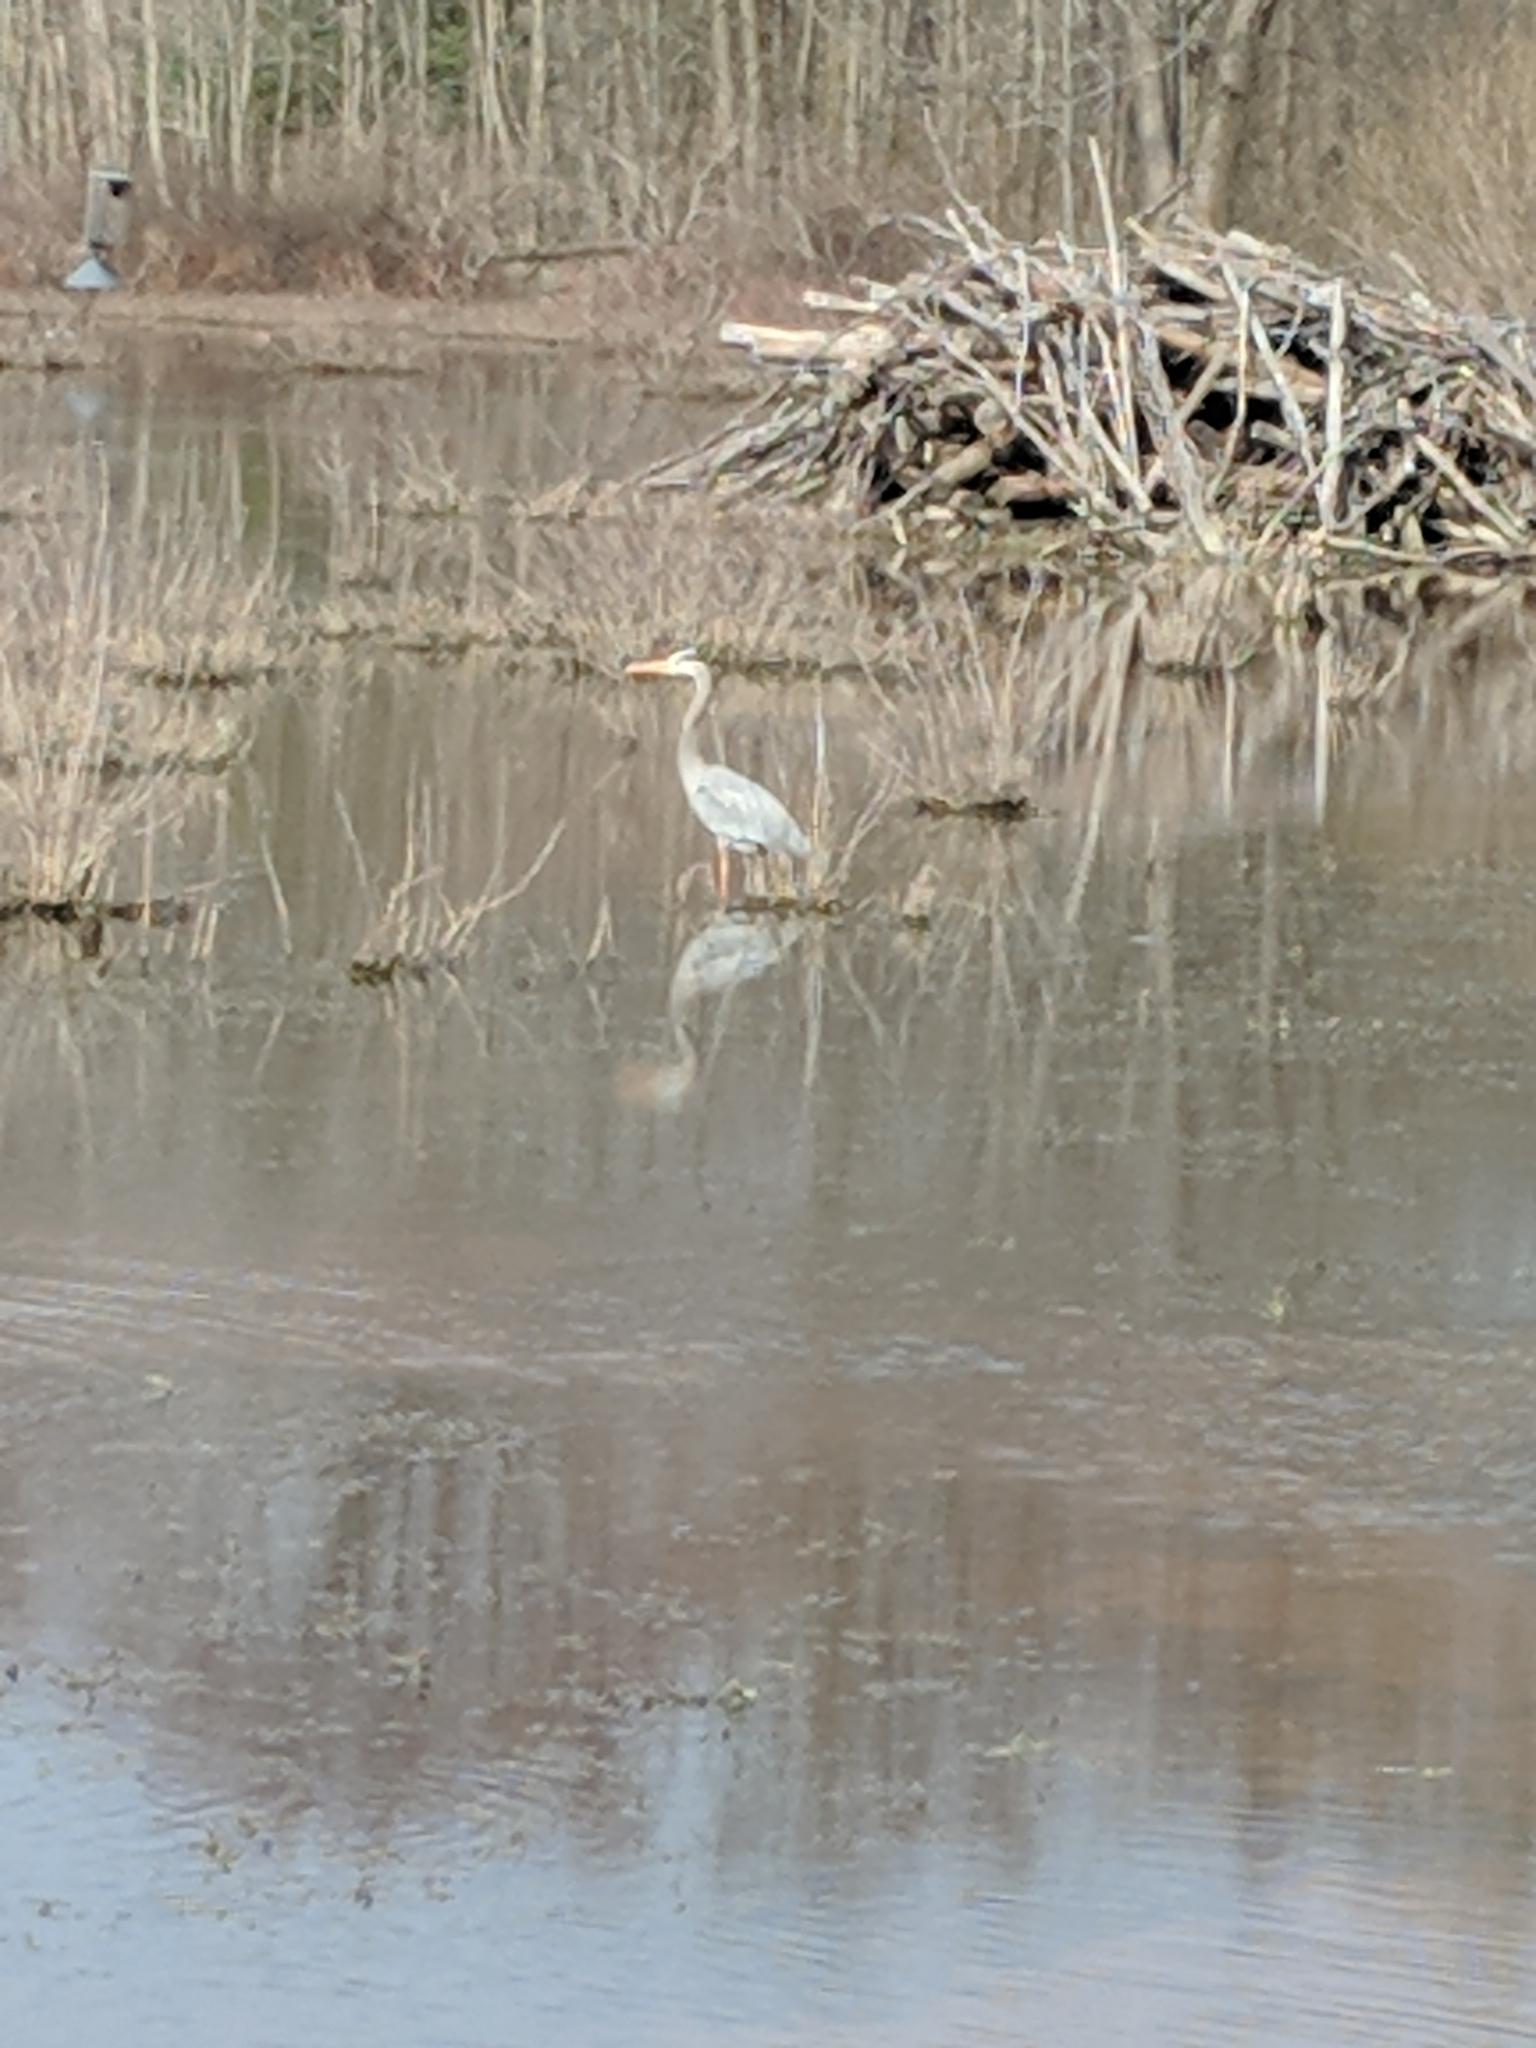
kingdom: Animalia
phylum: Chordata
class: Aves
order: Pelecaniformes
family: Ardeidae
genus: Ardea
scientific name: Ardea herodias
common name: Great blue heron
